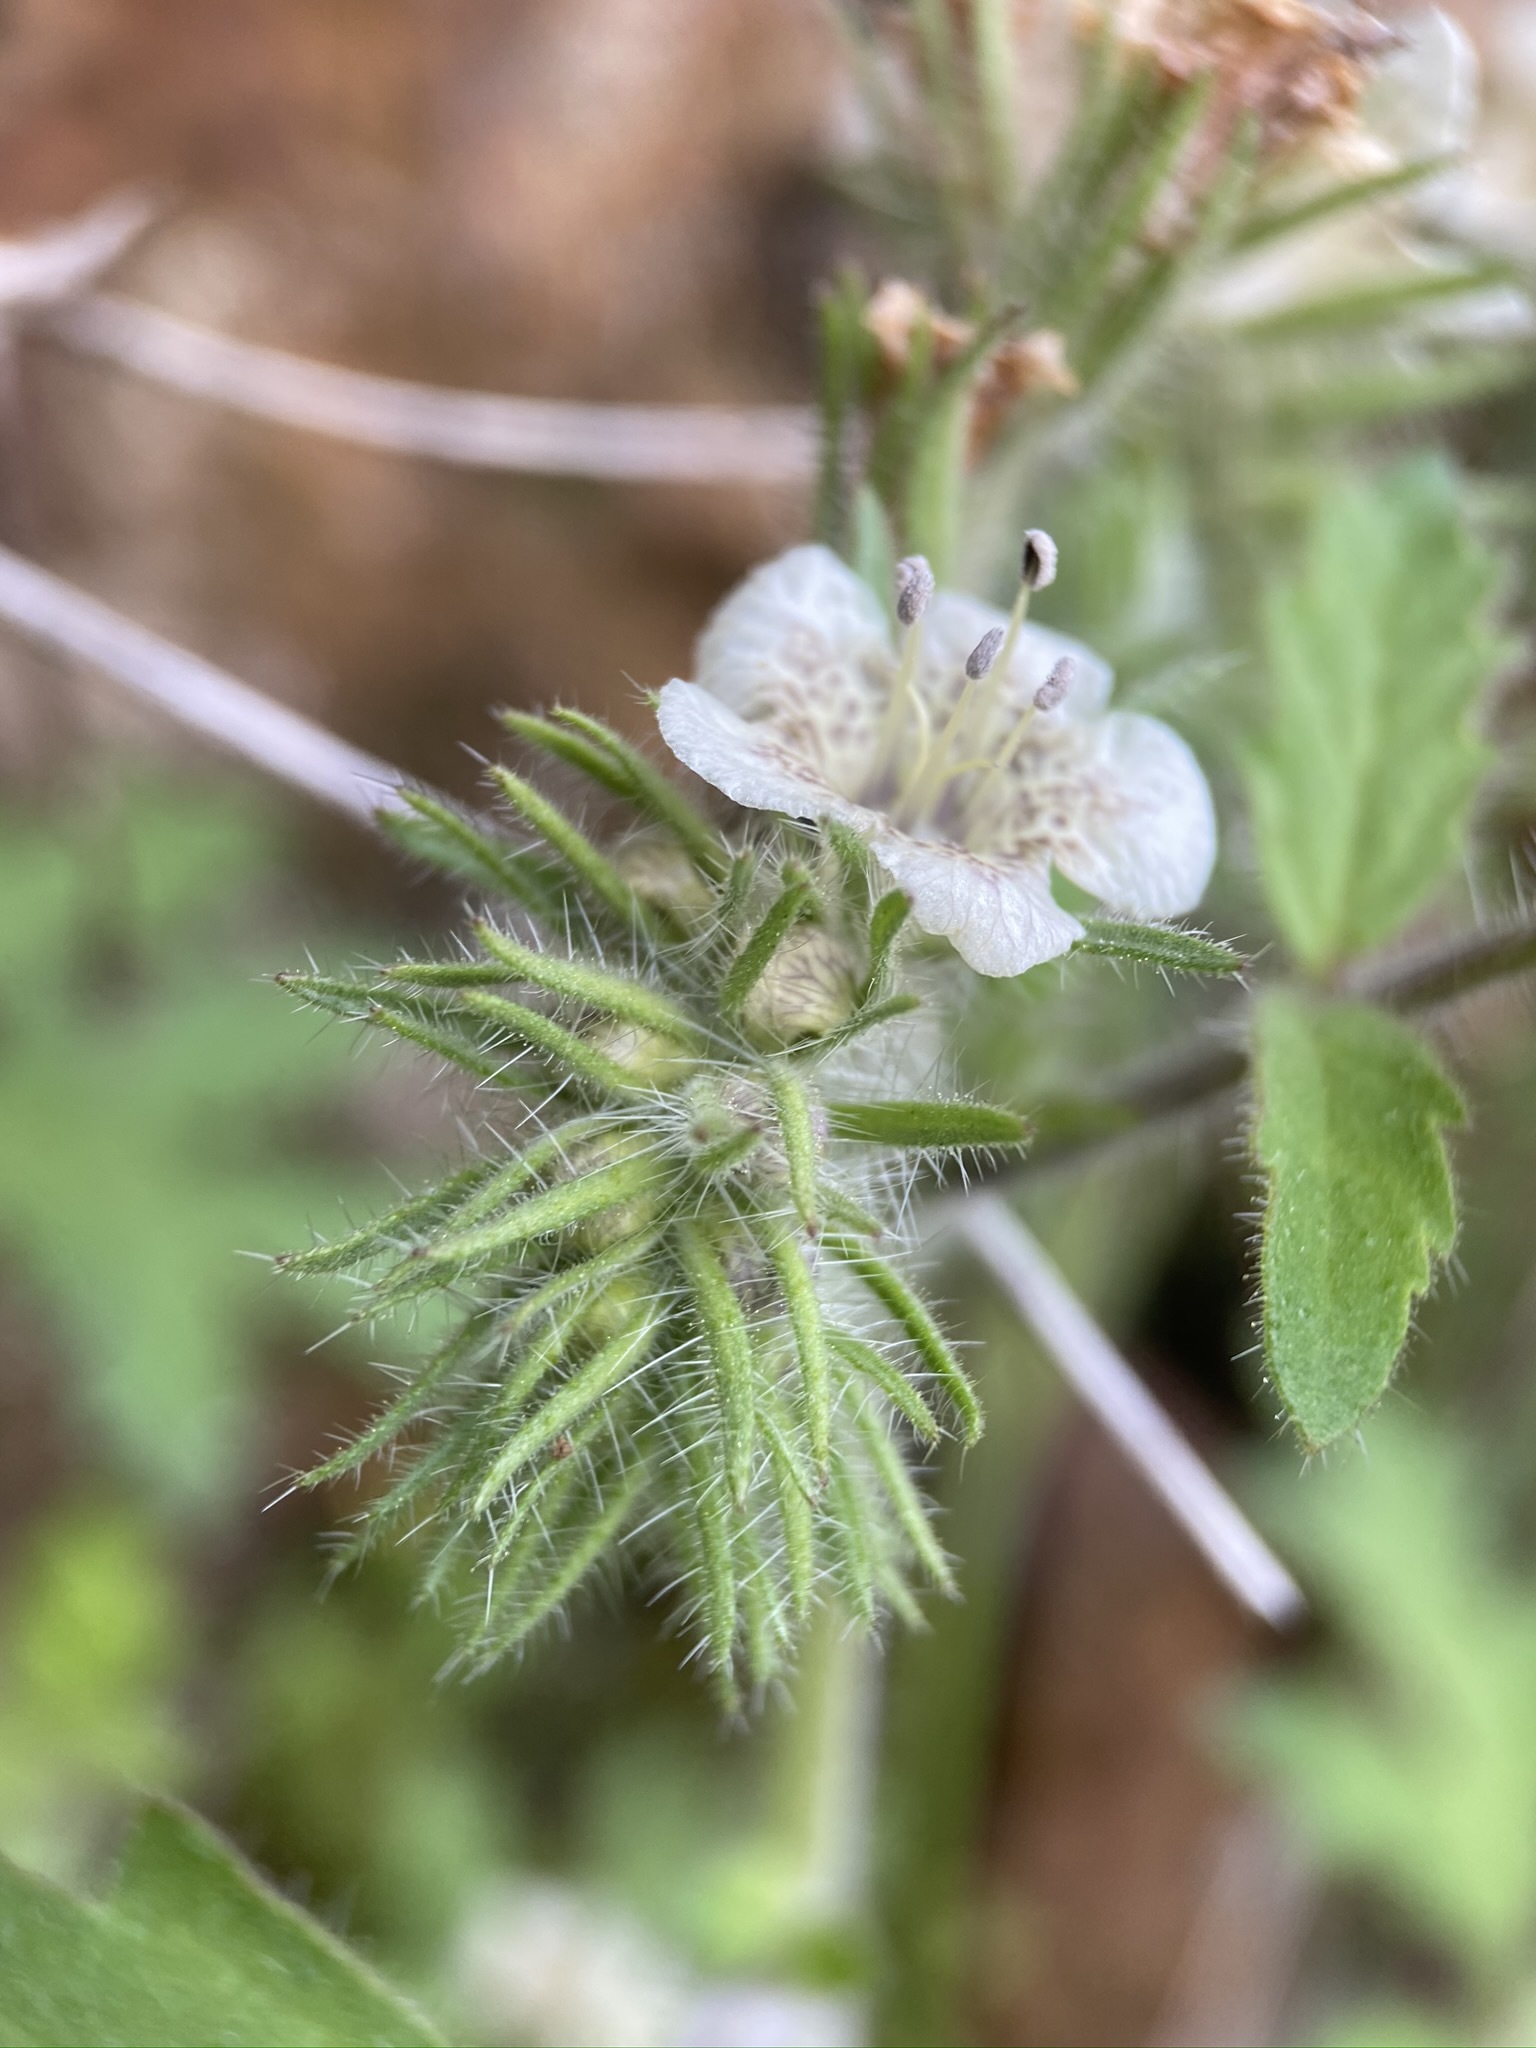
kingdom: Plantae
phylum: Tracheophyta
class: Magnoliopsida
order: Boraginales
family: Hydrophyllaceae
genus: Phacelia
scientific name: Phacelia cicutaria
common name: Caterpillar phacelia
